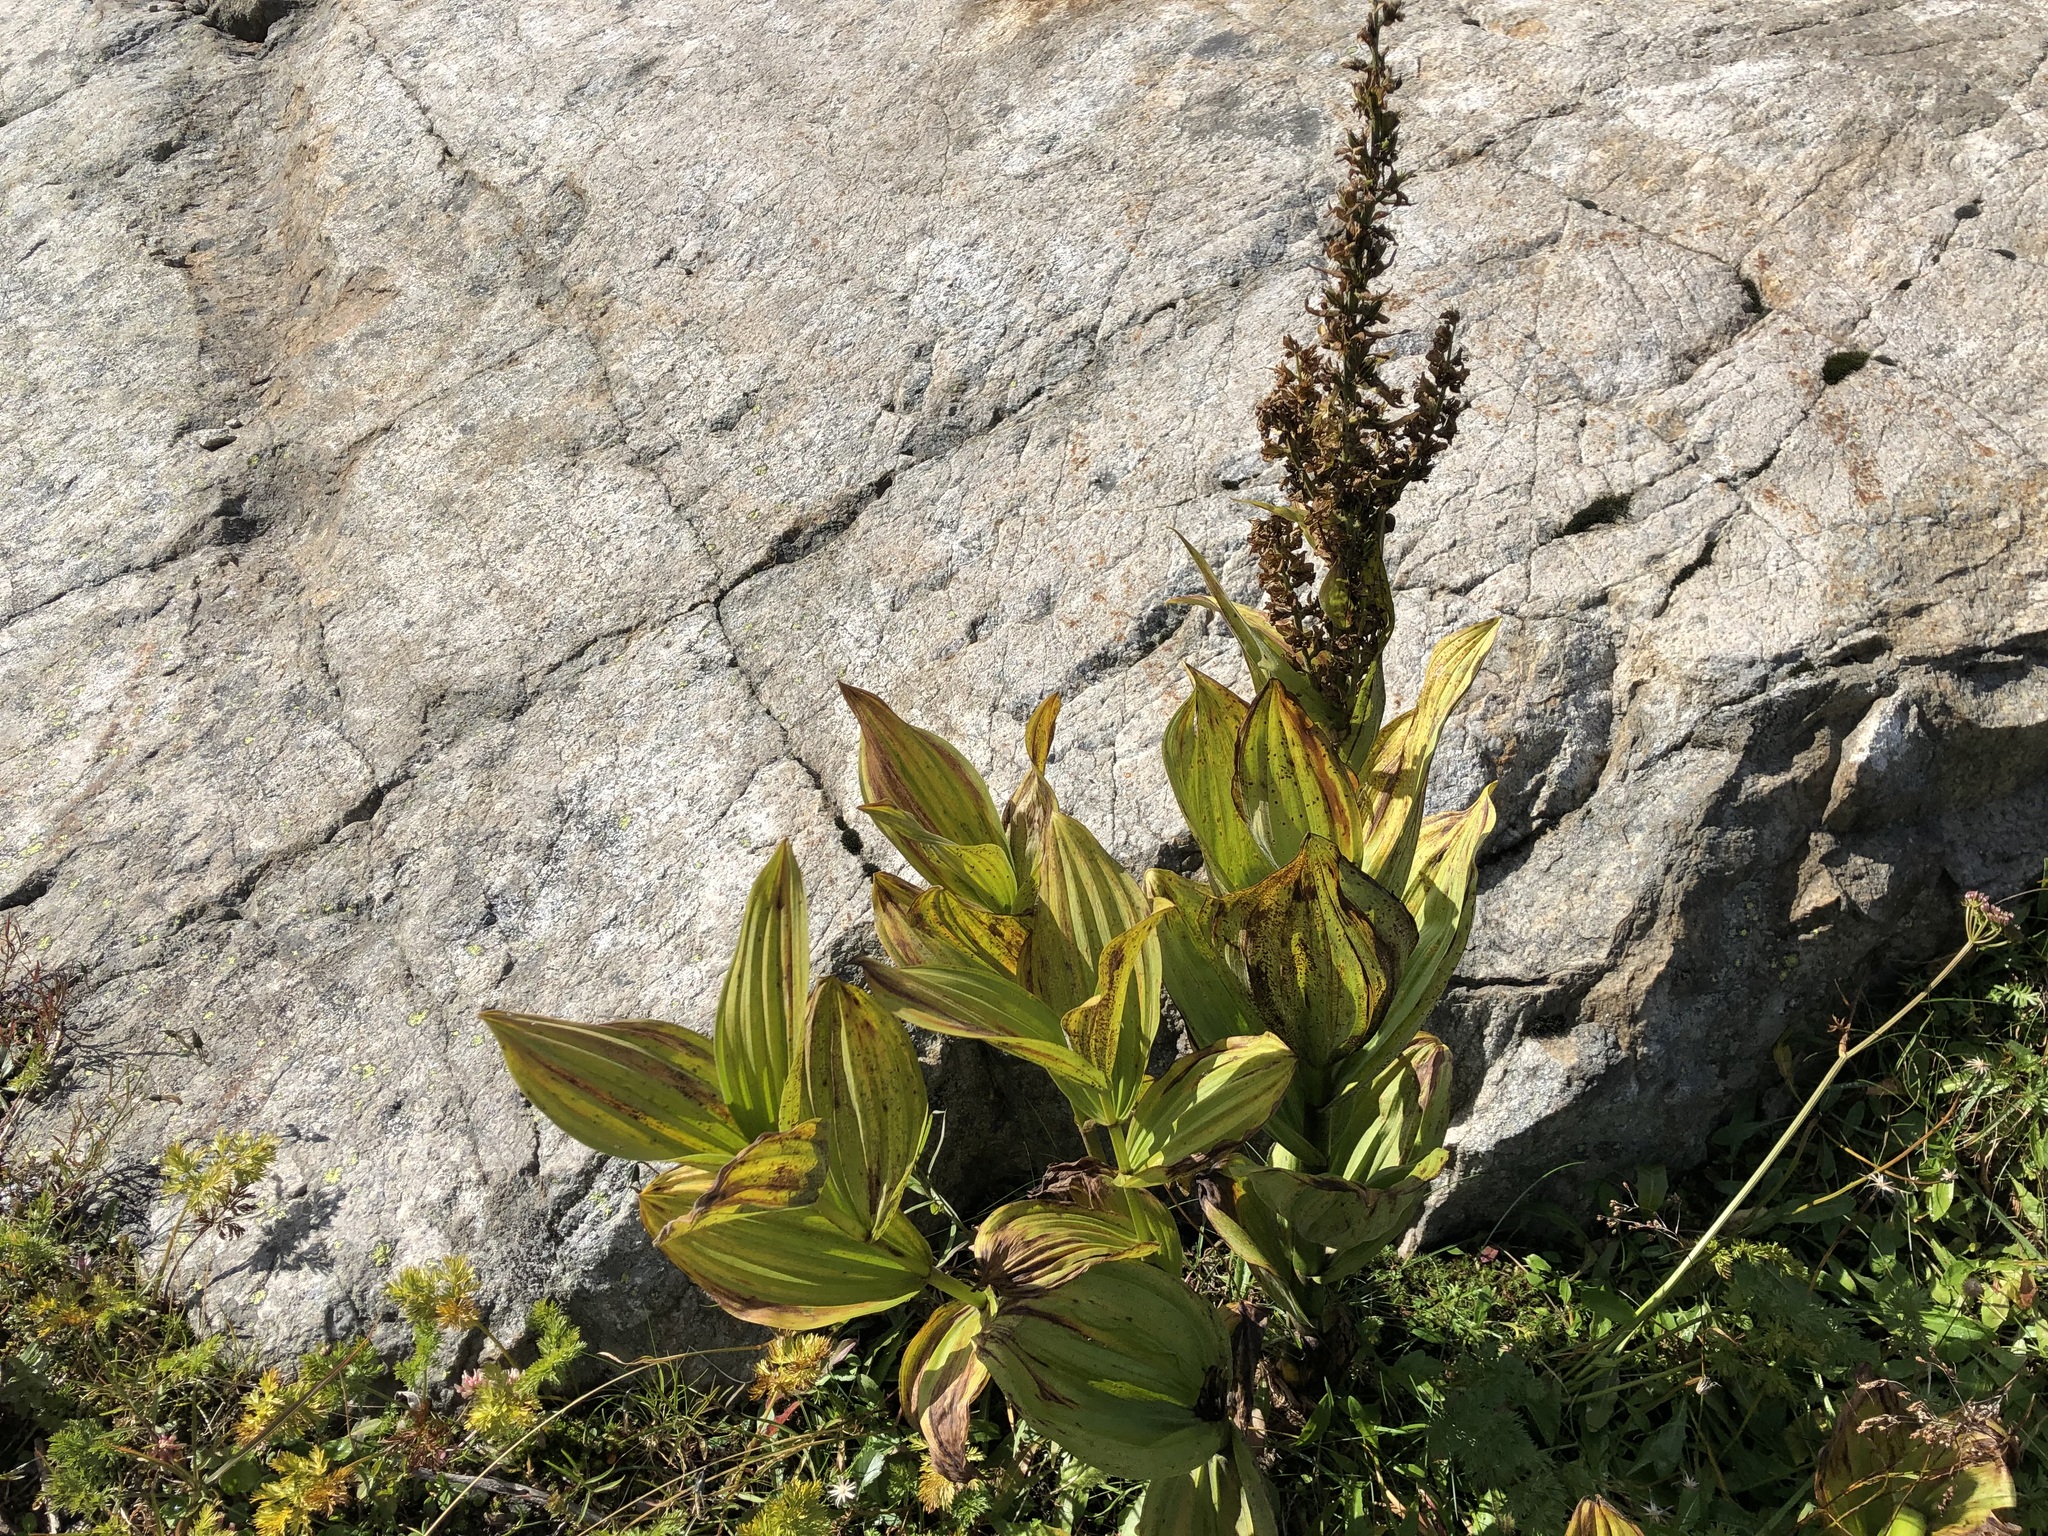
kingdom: Plantae
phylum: Tracheophyta
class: Liliopsida
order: Liliales
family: Melanthiaceae
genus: Veratrum
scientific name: Veratrum album
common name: White veratrum
